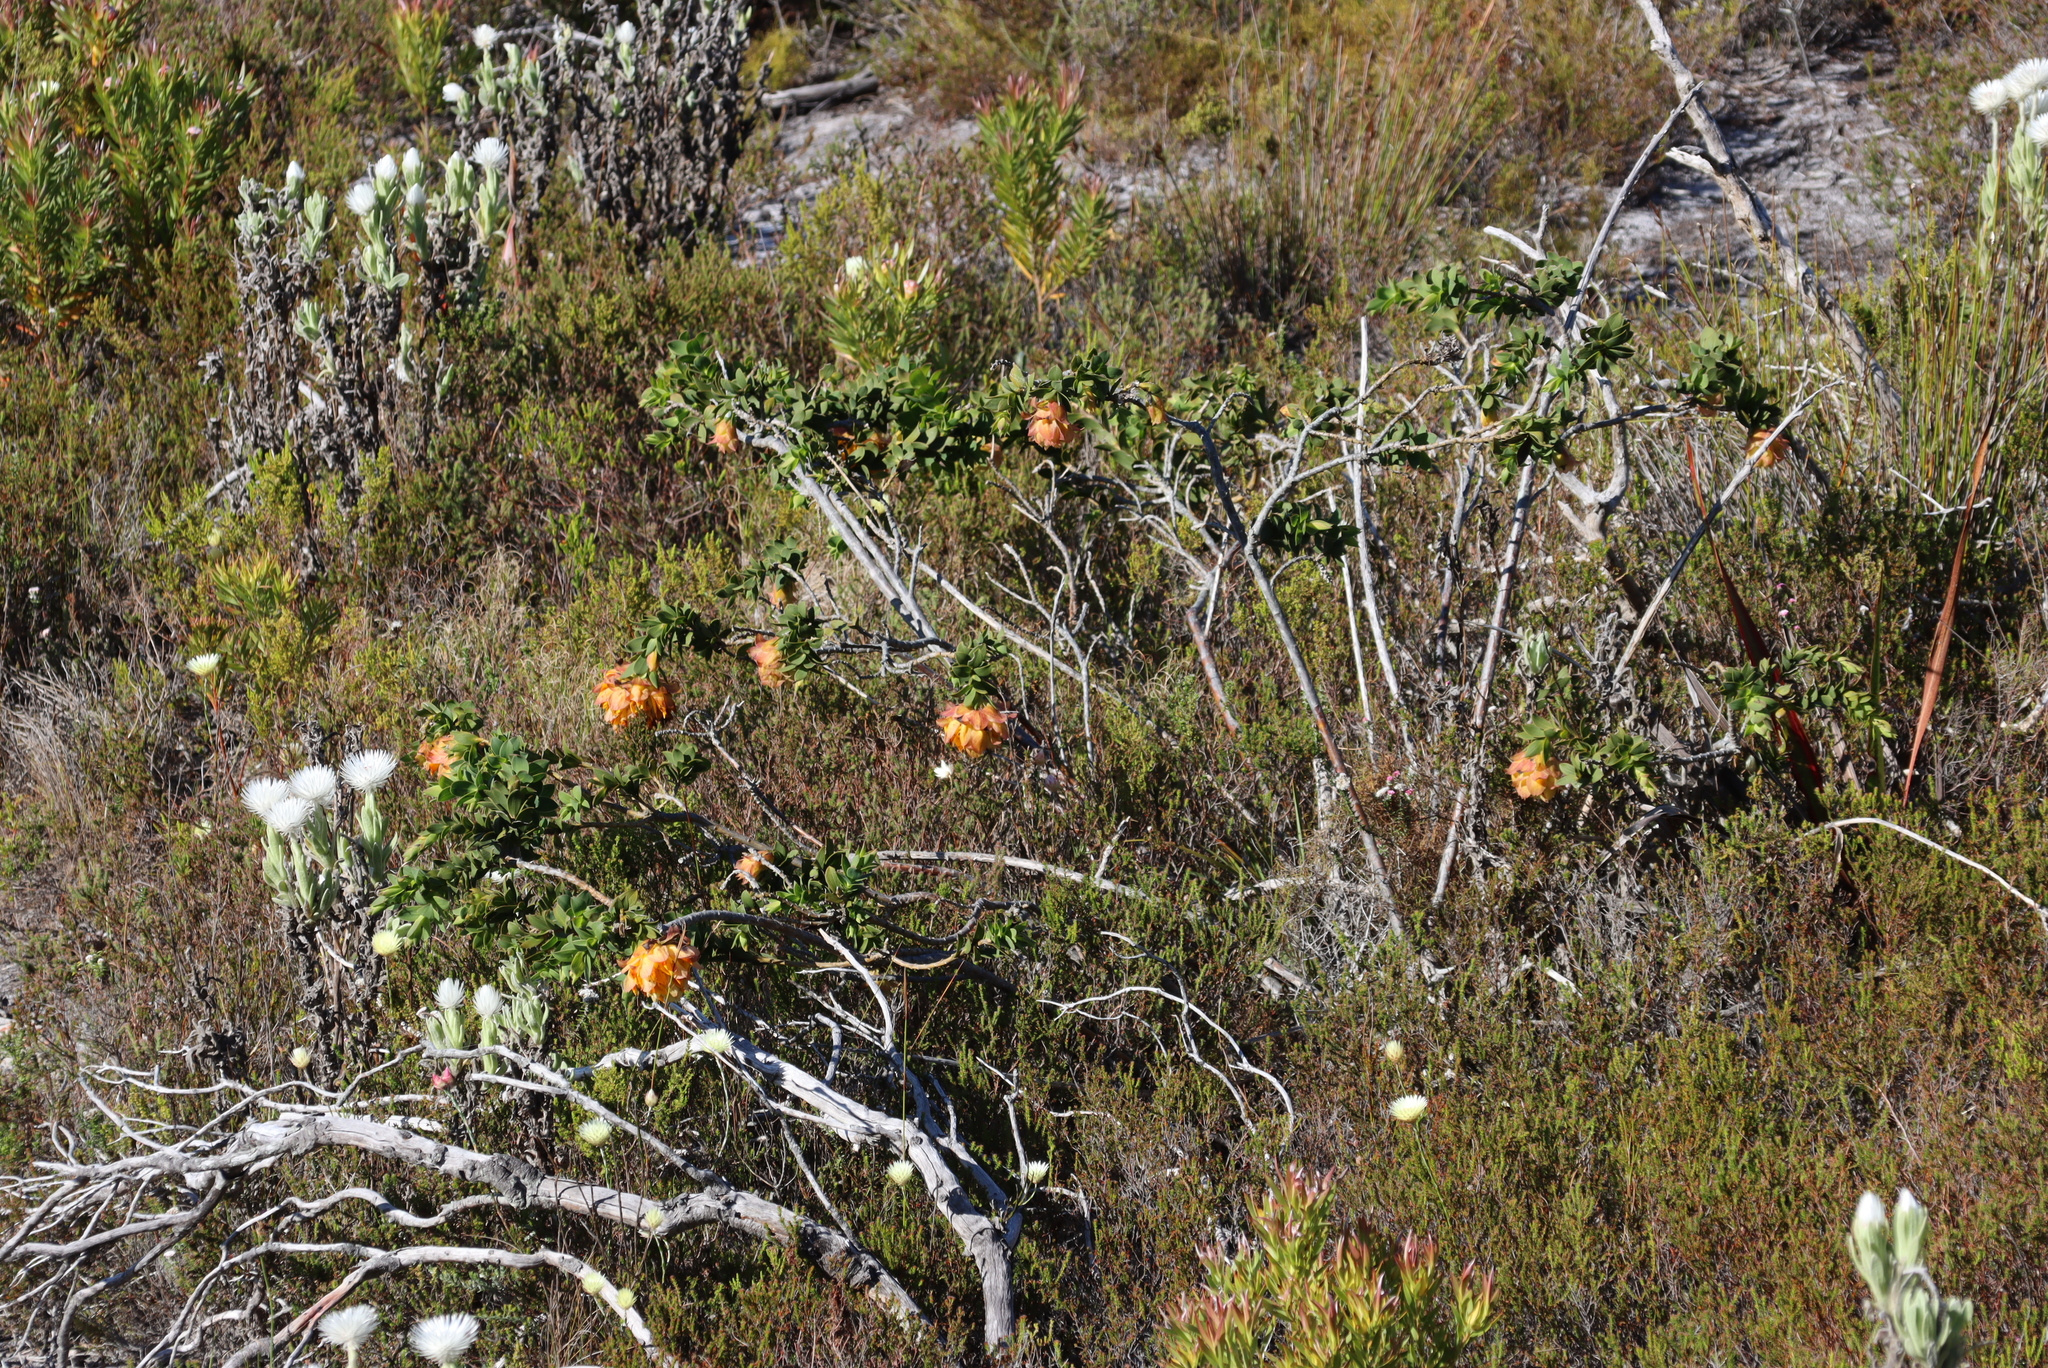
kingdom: Plantae
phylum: Tracheophyta
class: Magnoliopsida
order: Fabales
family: Fabaceae
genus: Liparia
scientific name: Liparia splendens
